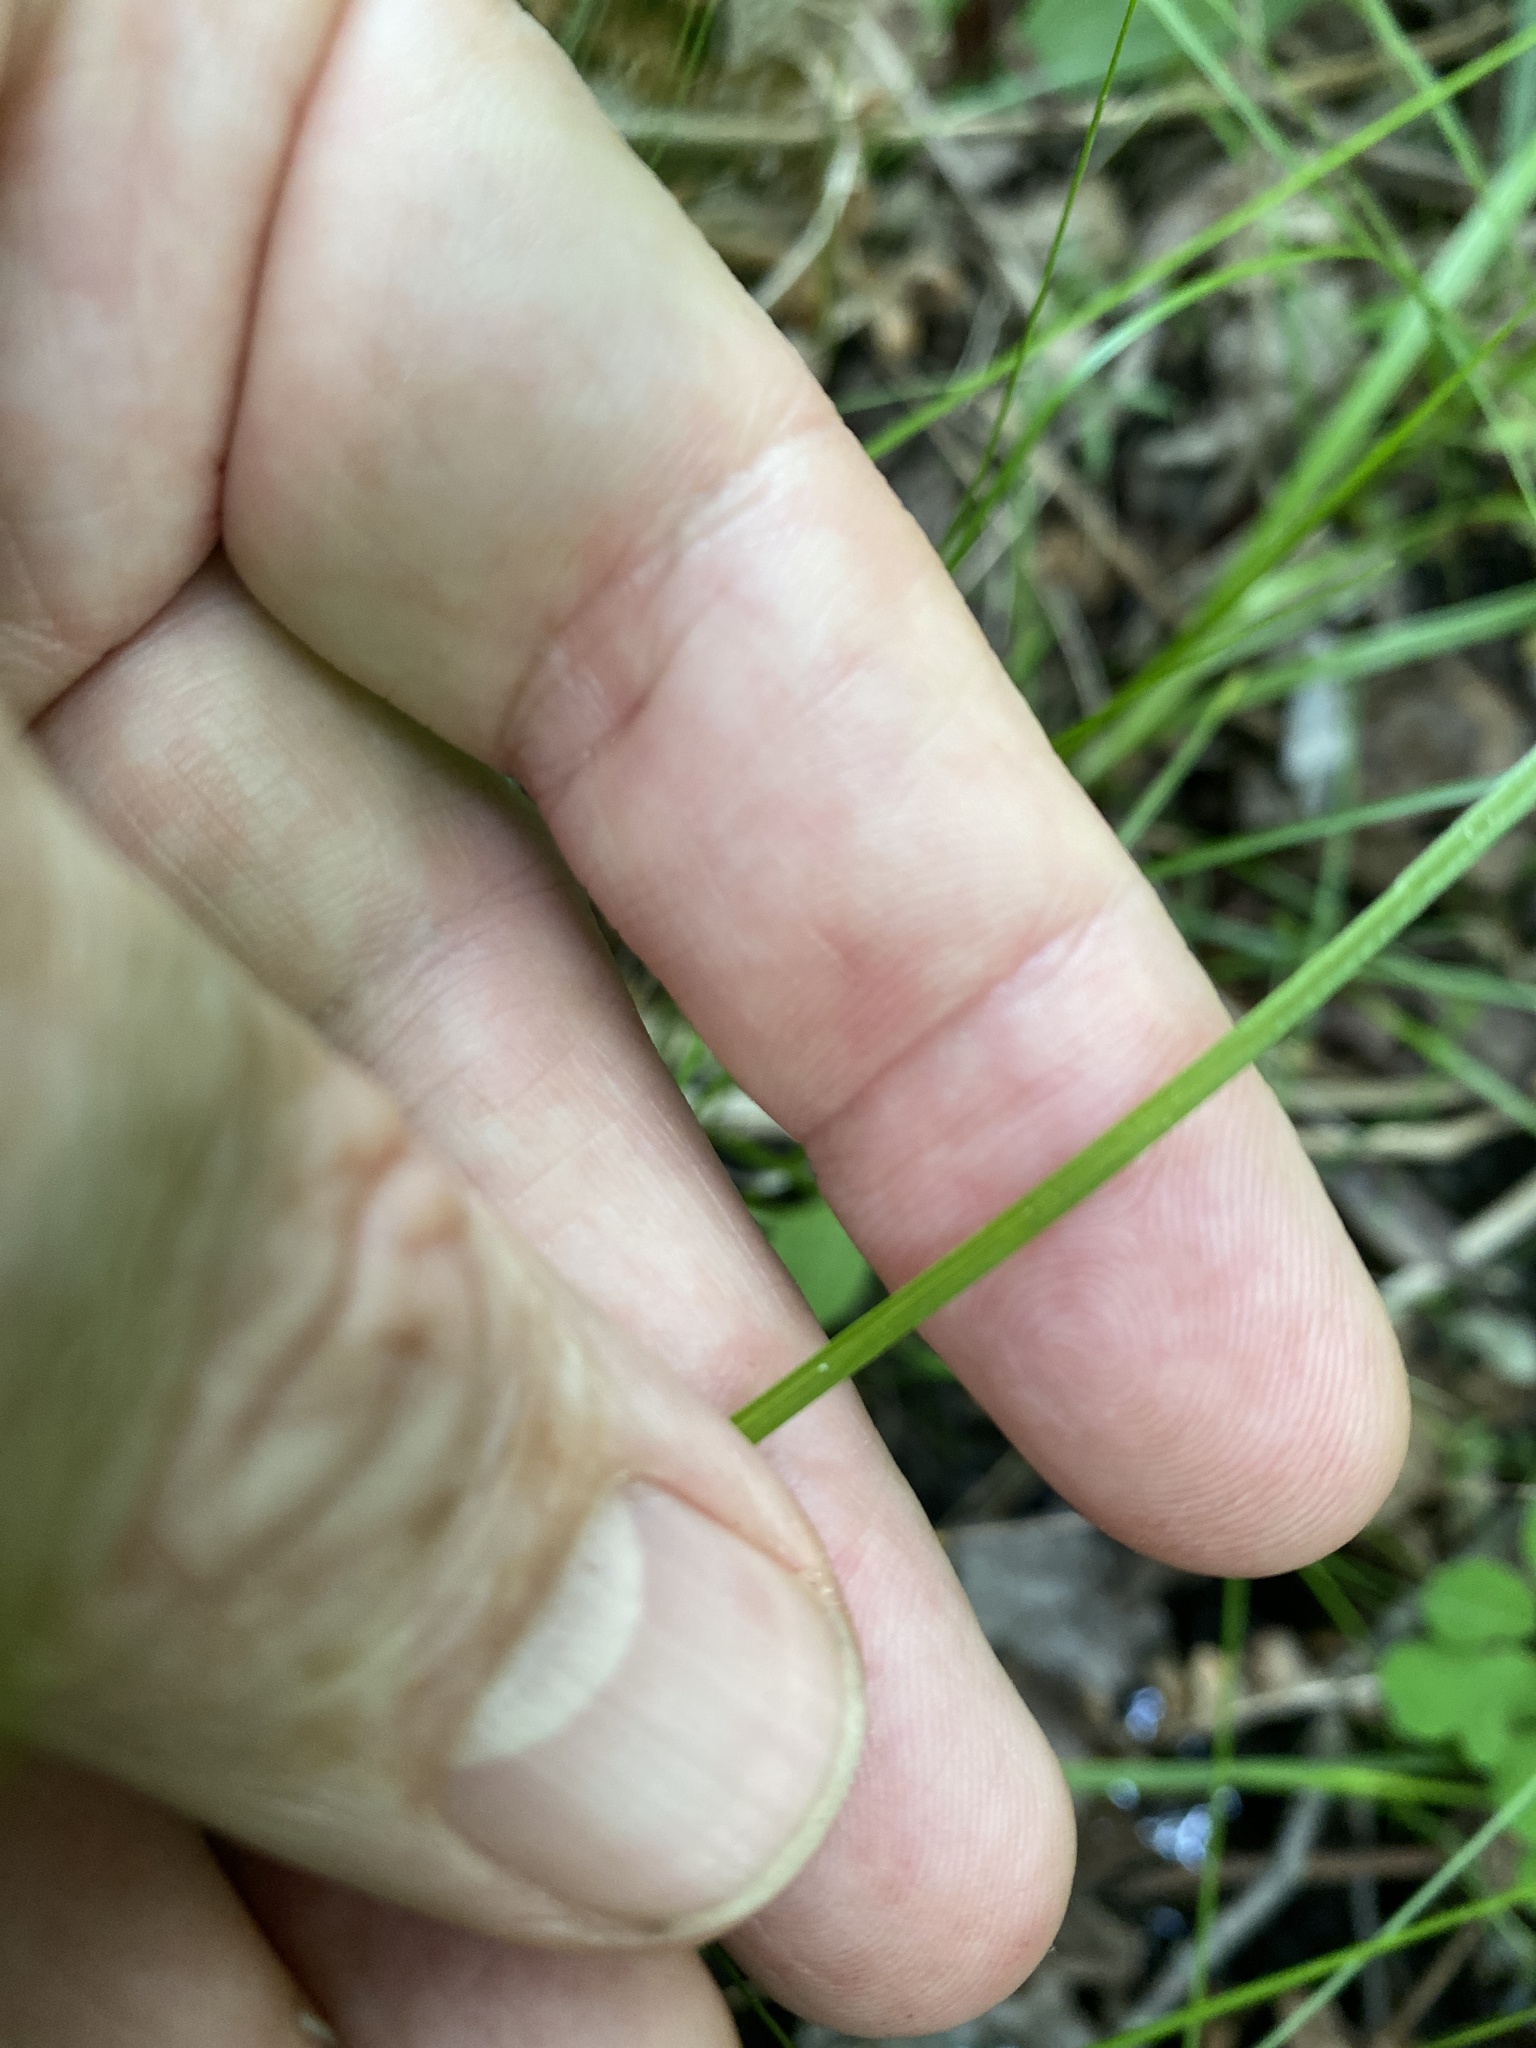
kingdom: Plantae
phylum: Tracheophyta
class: Liliopsida
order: Poales
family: Cyperaceae
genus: Carex
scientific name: Carex echinata
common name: Star sedge
